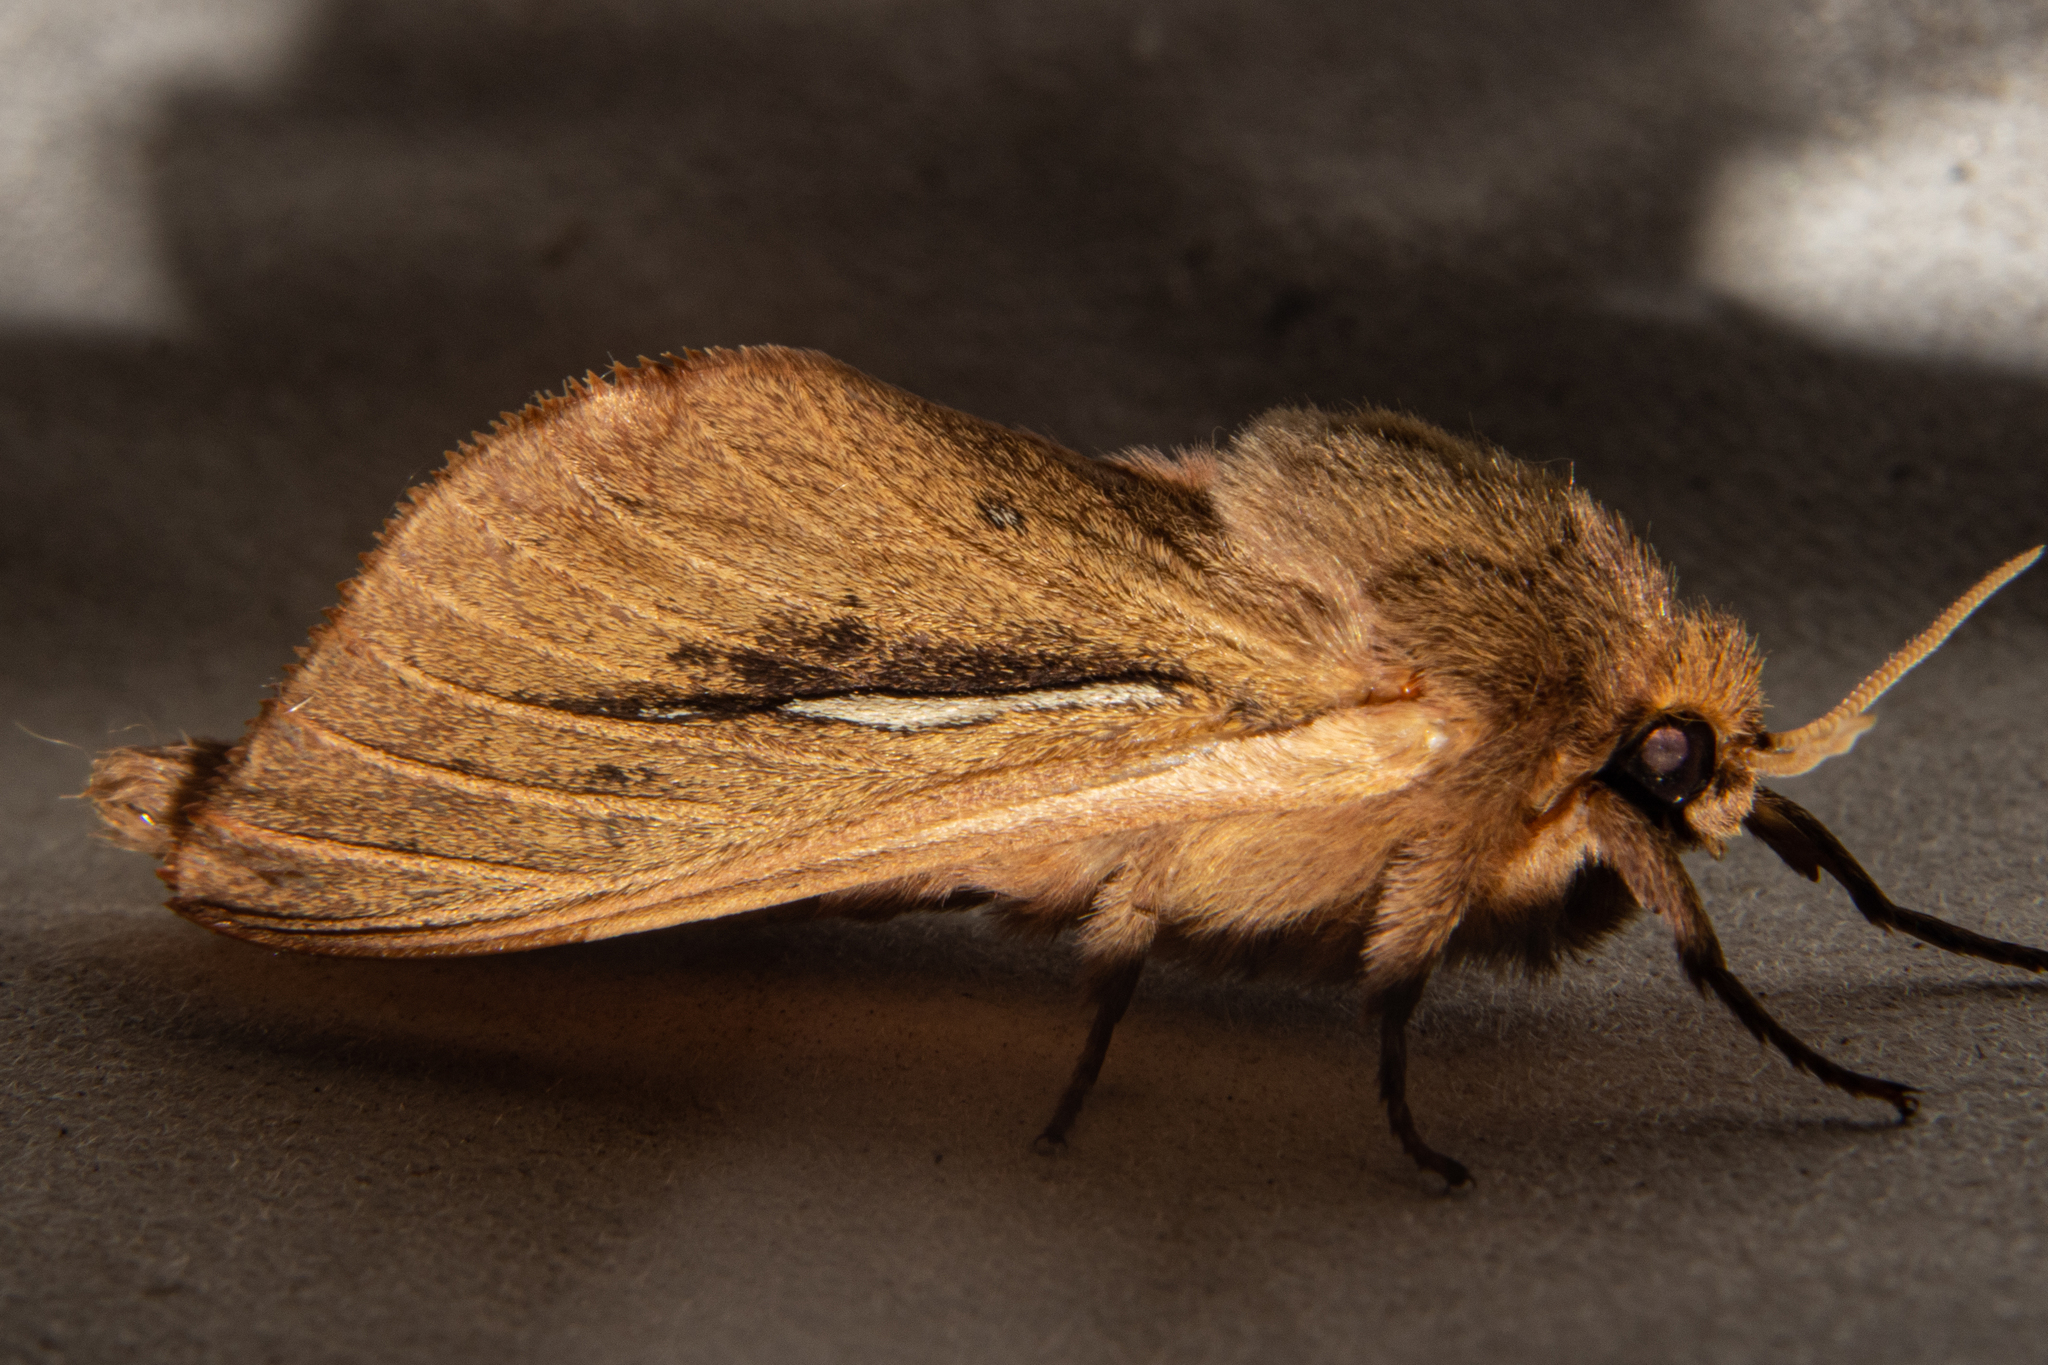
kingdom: Animalia
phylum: Arthropoda
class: Insecta
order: Lepidoptera
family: Hepialidae
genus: Wiseana
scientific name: Wiseana umbraculatus
